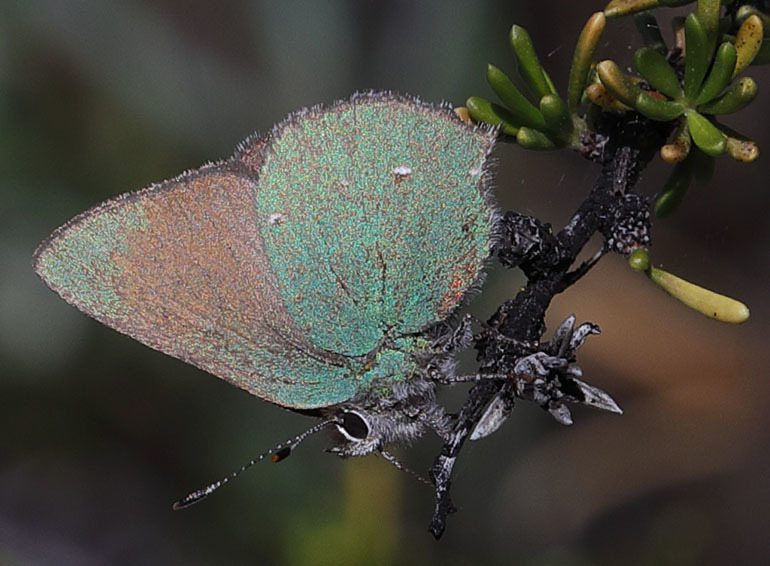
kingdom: Animalia
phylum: Arthropoda
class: Insecta
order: Lepidoptera
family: Lycaenidae
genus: Callophrys
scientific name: Callophrys dumetorum
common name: Bramble hairstreak
